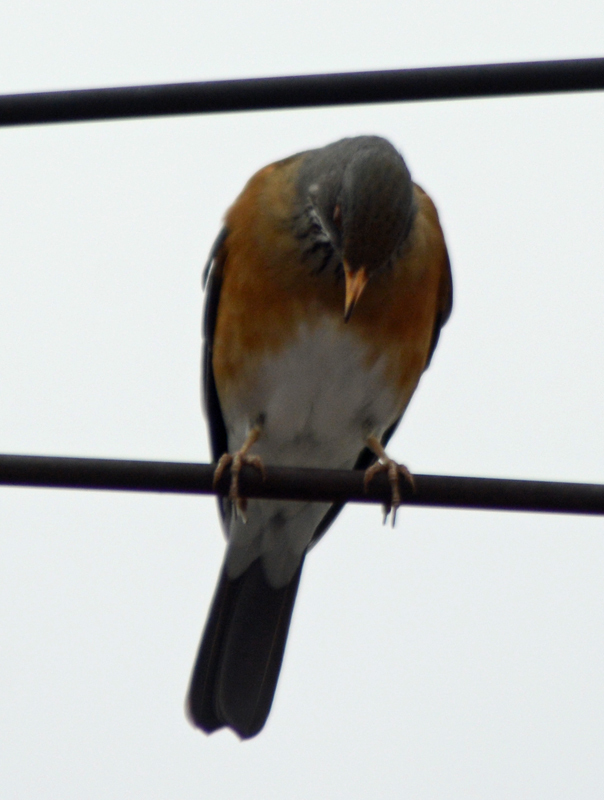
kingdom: Animalia
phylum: Chordata
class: Aves
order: Passeriformes
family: Turdidae
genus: Turdus
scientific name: Turdus rufopalliatus
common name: Rufous-backed robin
